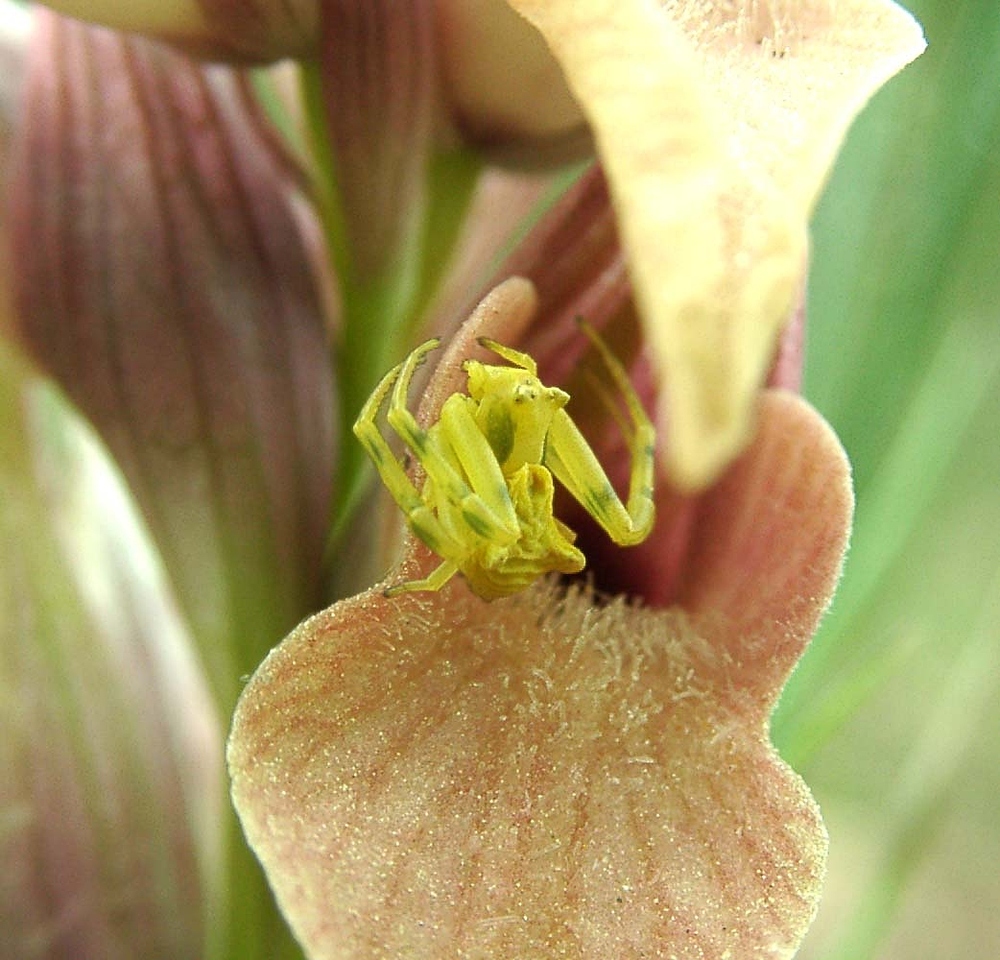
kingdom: Animalia
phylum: Arthropoda
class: Arachnida
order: Araneae
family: Thomisidae
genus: Thomisus
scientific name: Thomisus onustus
